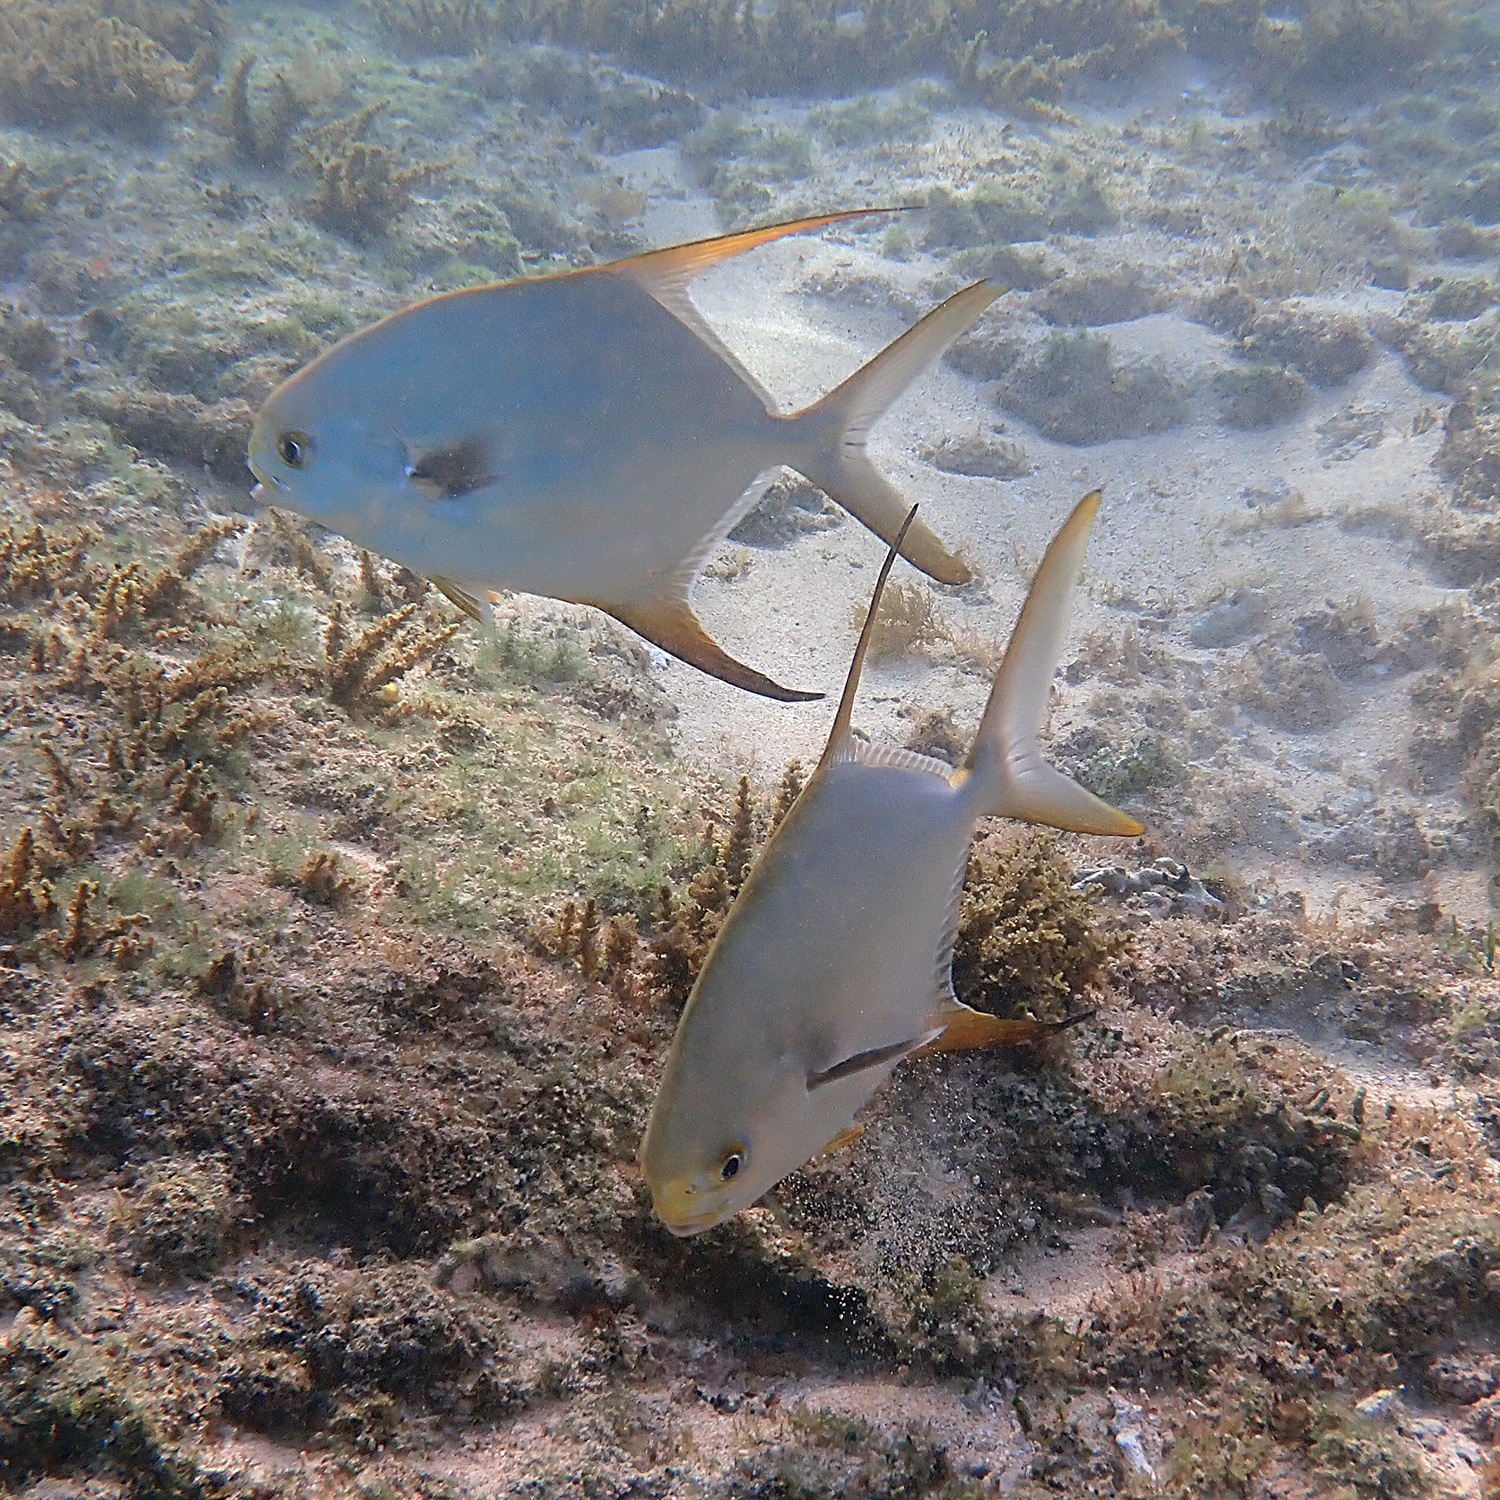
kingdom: Animalia
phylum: Chordata
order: Perciformes
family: Carangidae
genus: Trachinotus
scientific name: Trachinotus blochii
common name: Snubnose pompano
